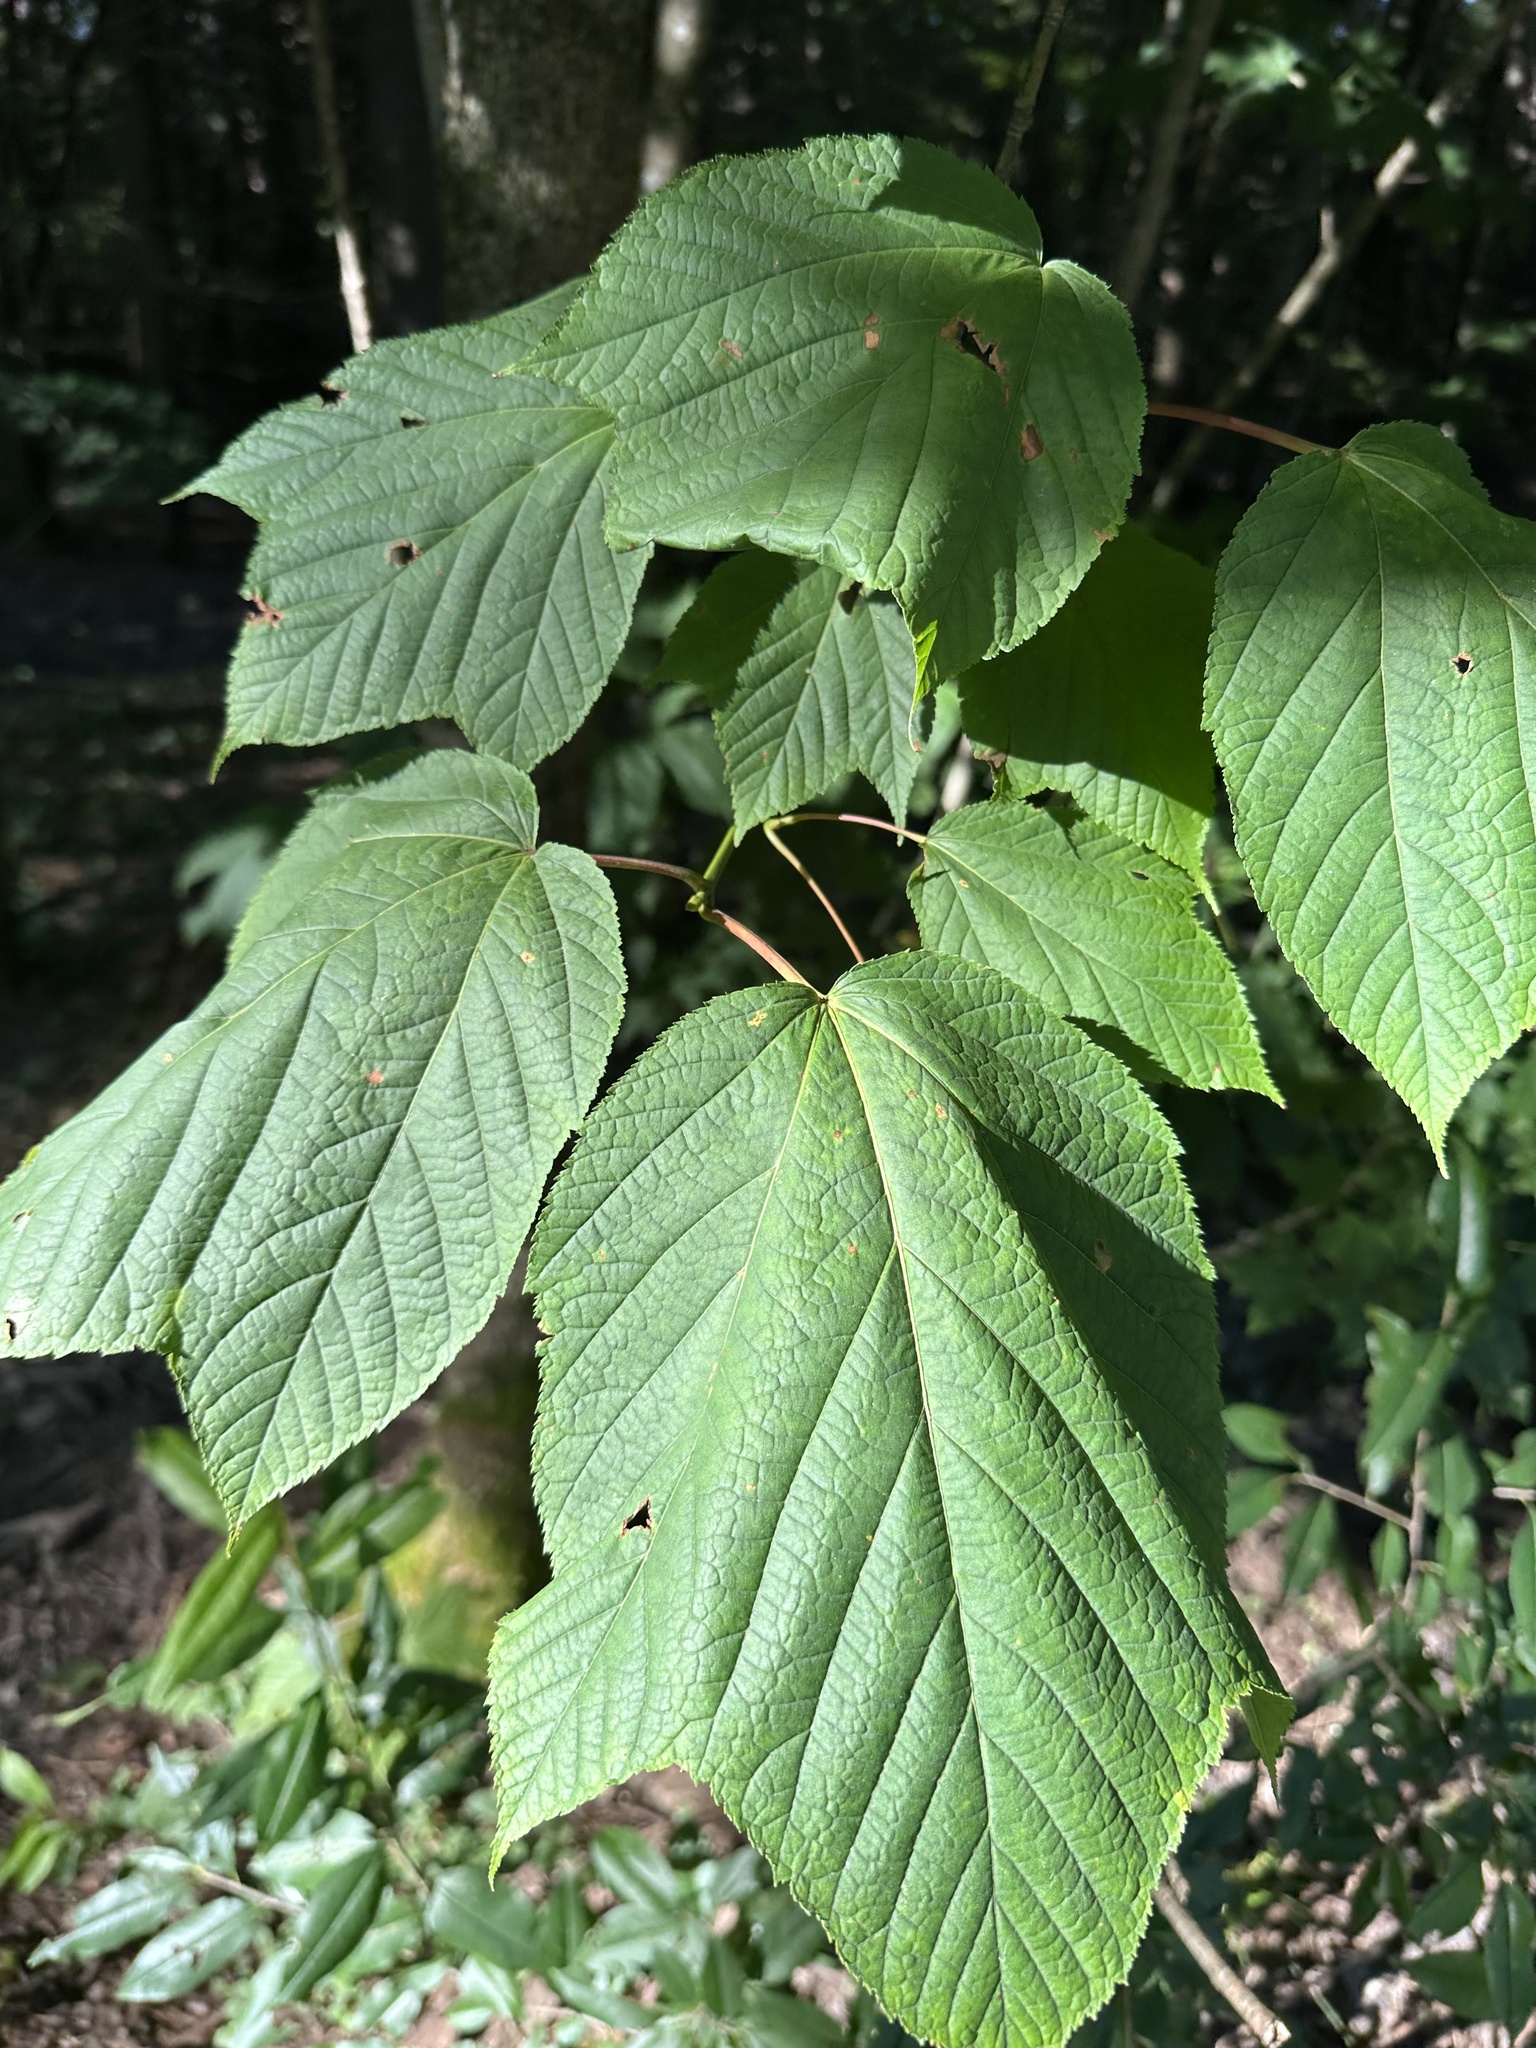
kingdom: Plantae
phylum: Tracheophyta
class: Magnoliopsida
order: Sapindales
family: Sapindaceae
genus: Acer
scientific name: Acer pensylvanicum
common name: Moosewood
